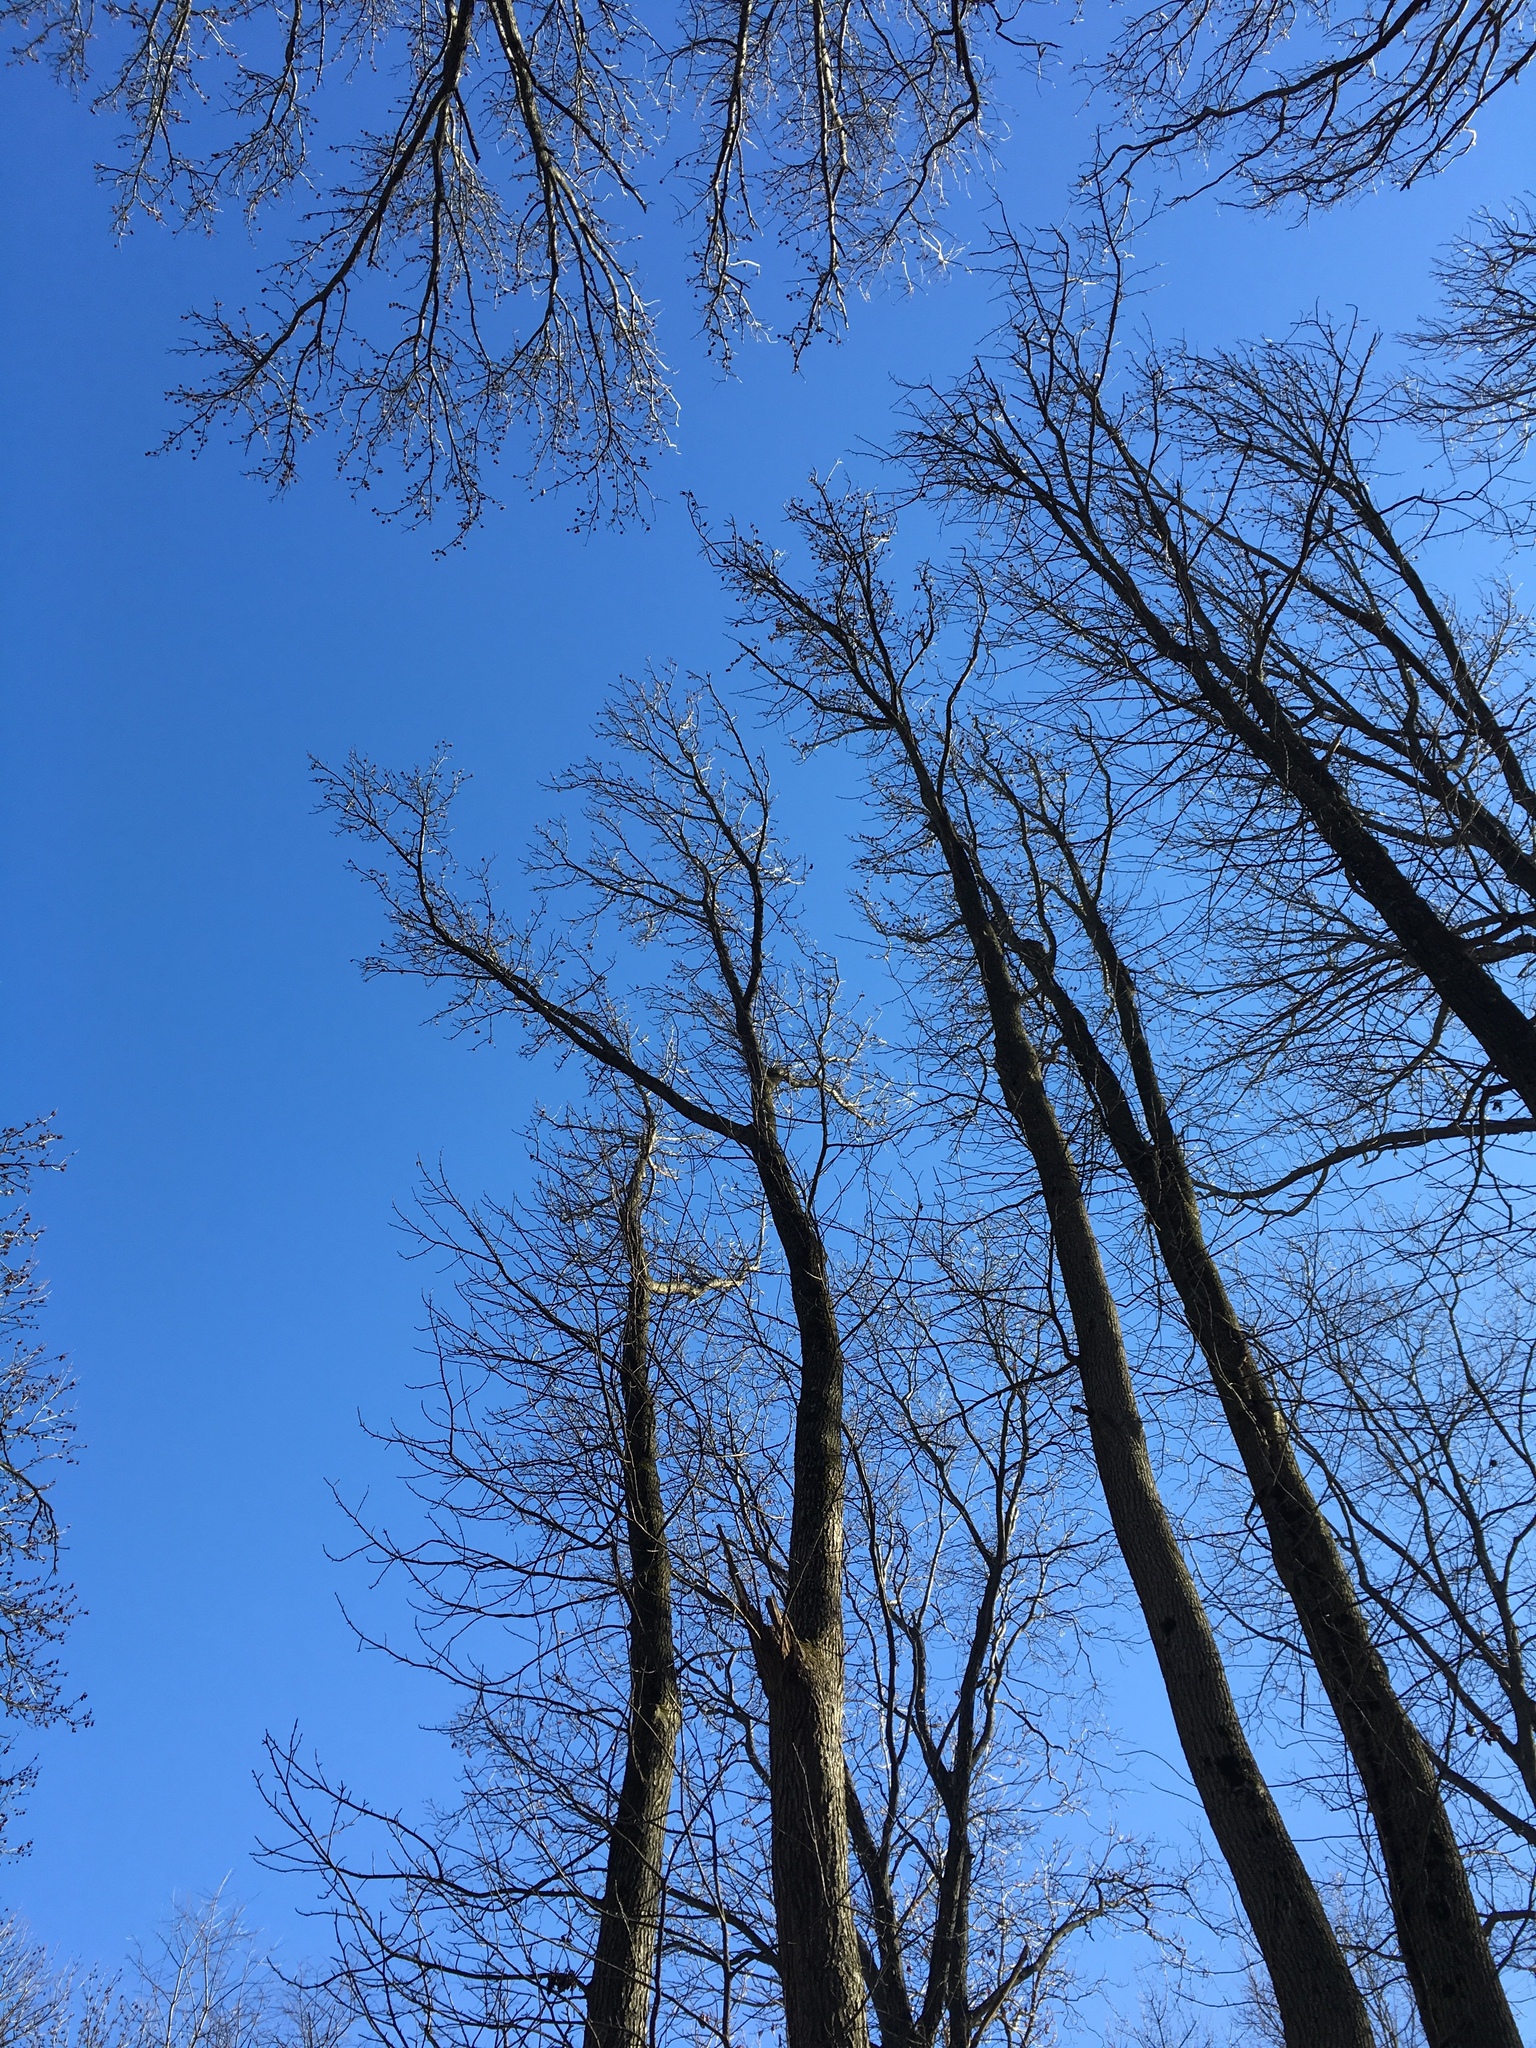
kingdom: Plantae
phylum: Tracheophyta
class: Magnoliopsida
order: Saxifragales
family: Altingiaceae
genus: Liquidambar
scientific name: Liquidambar styraciflua
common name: Sweet gum
